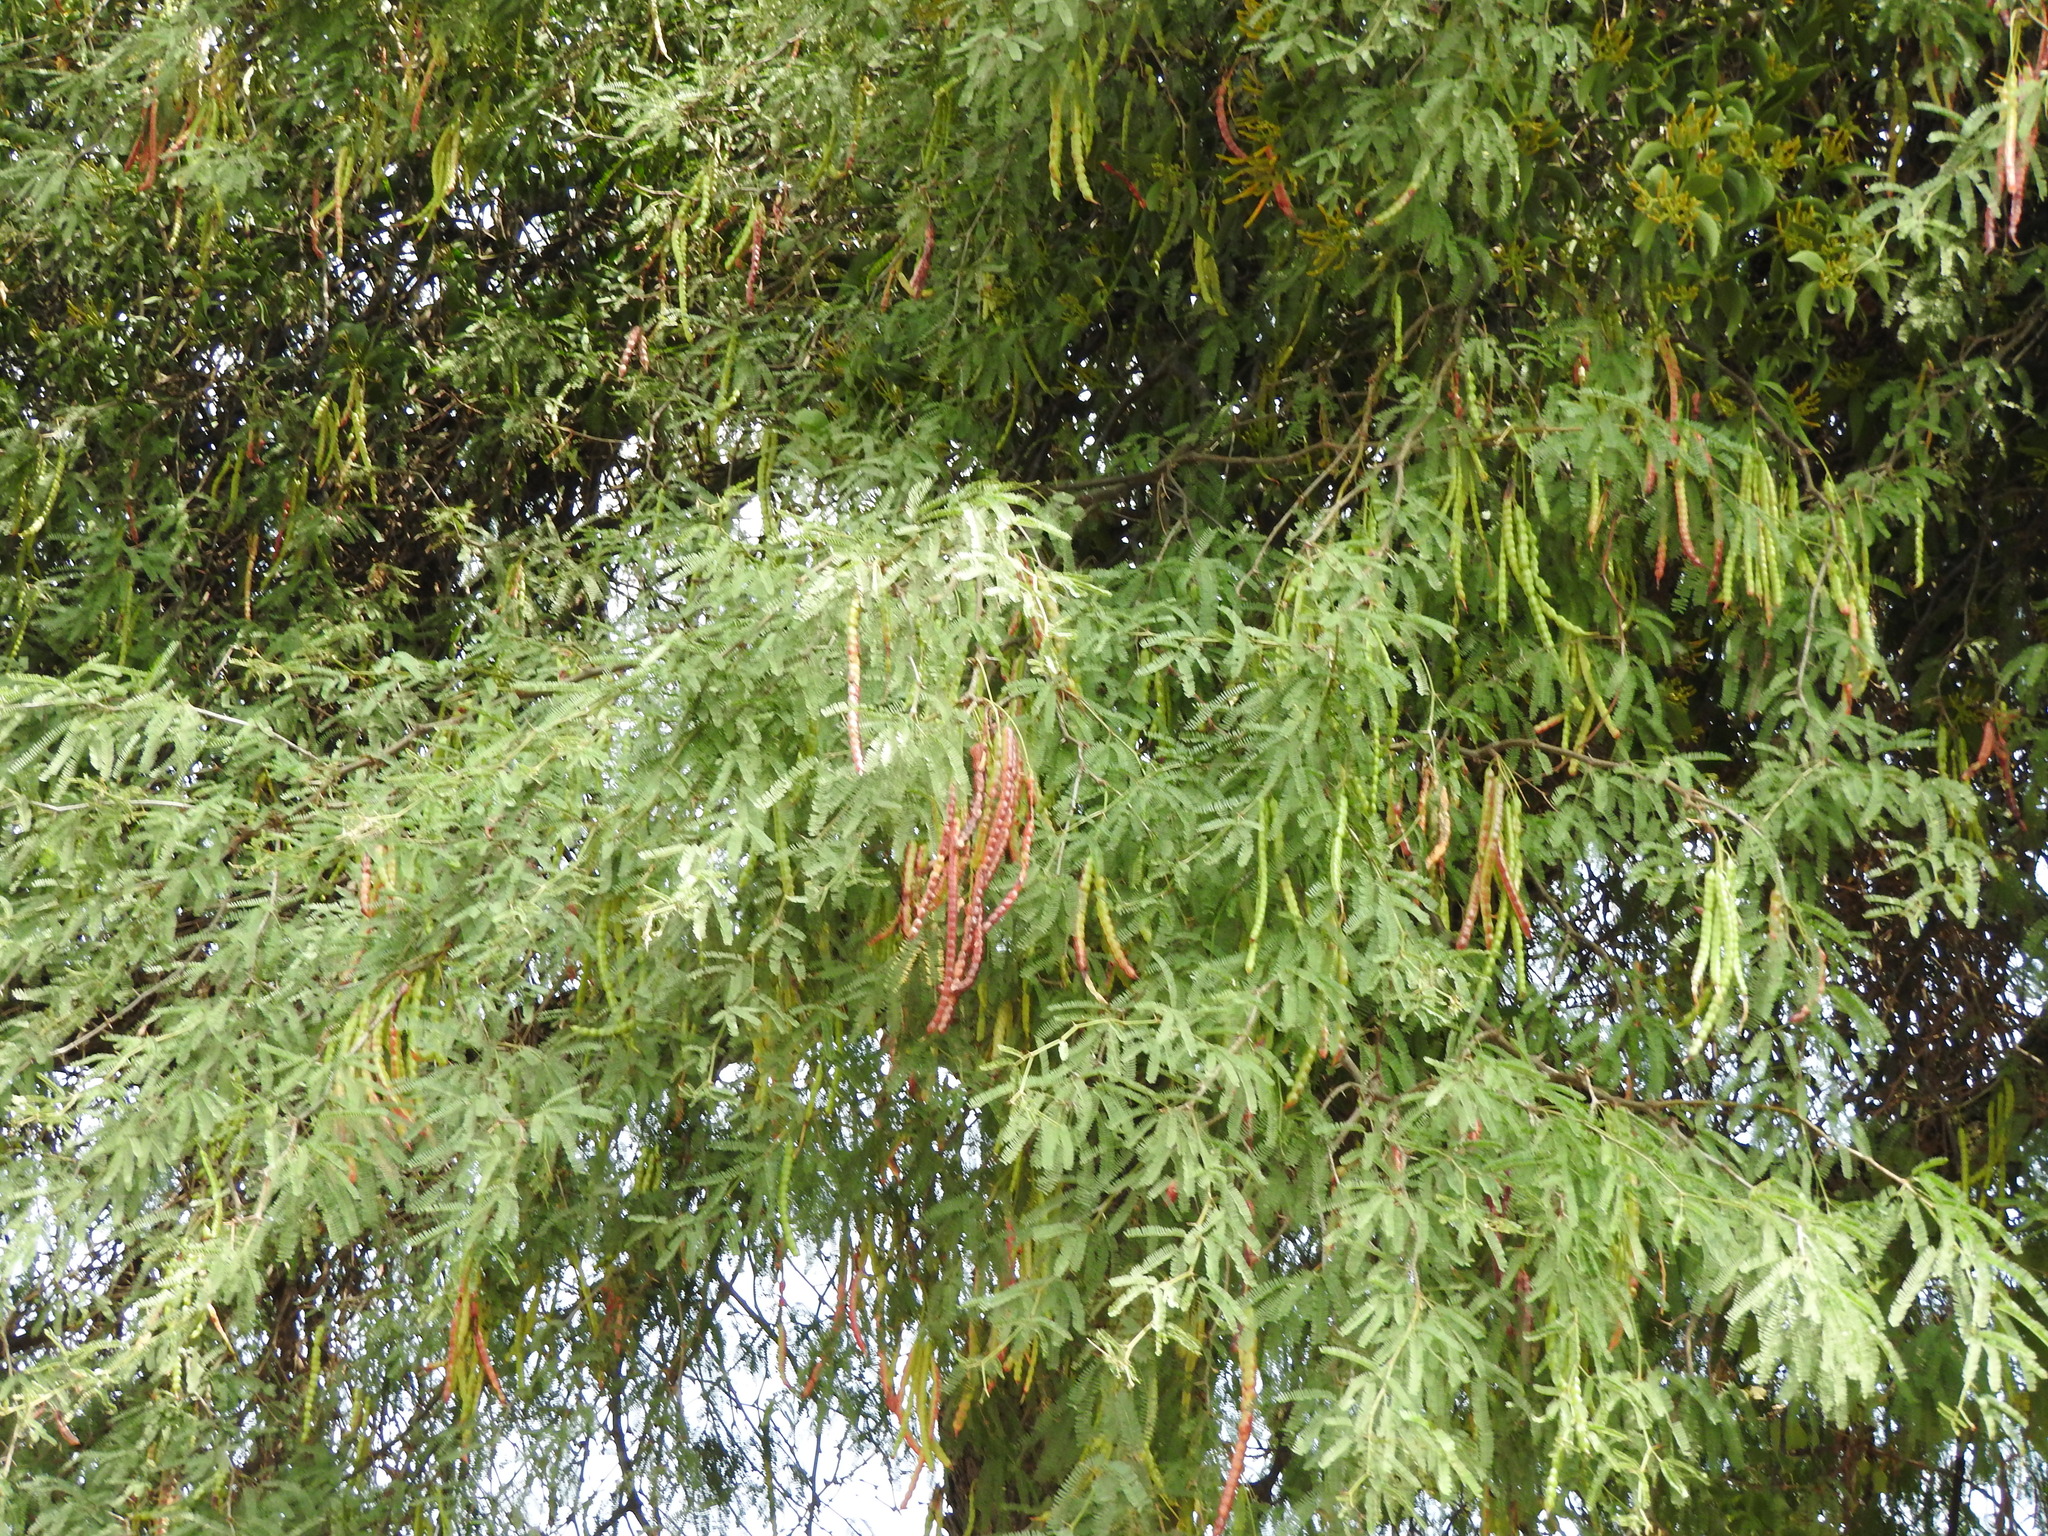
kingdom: Plantae
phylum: Tracheophyta
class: Magnoliopsida
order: Fabales
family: Fabaceae
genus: Prosopis
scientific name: Prosopis laevigata
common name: Smooth mesquite
